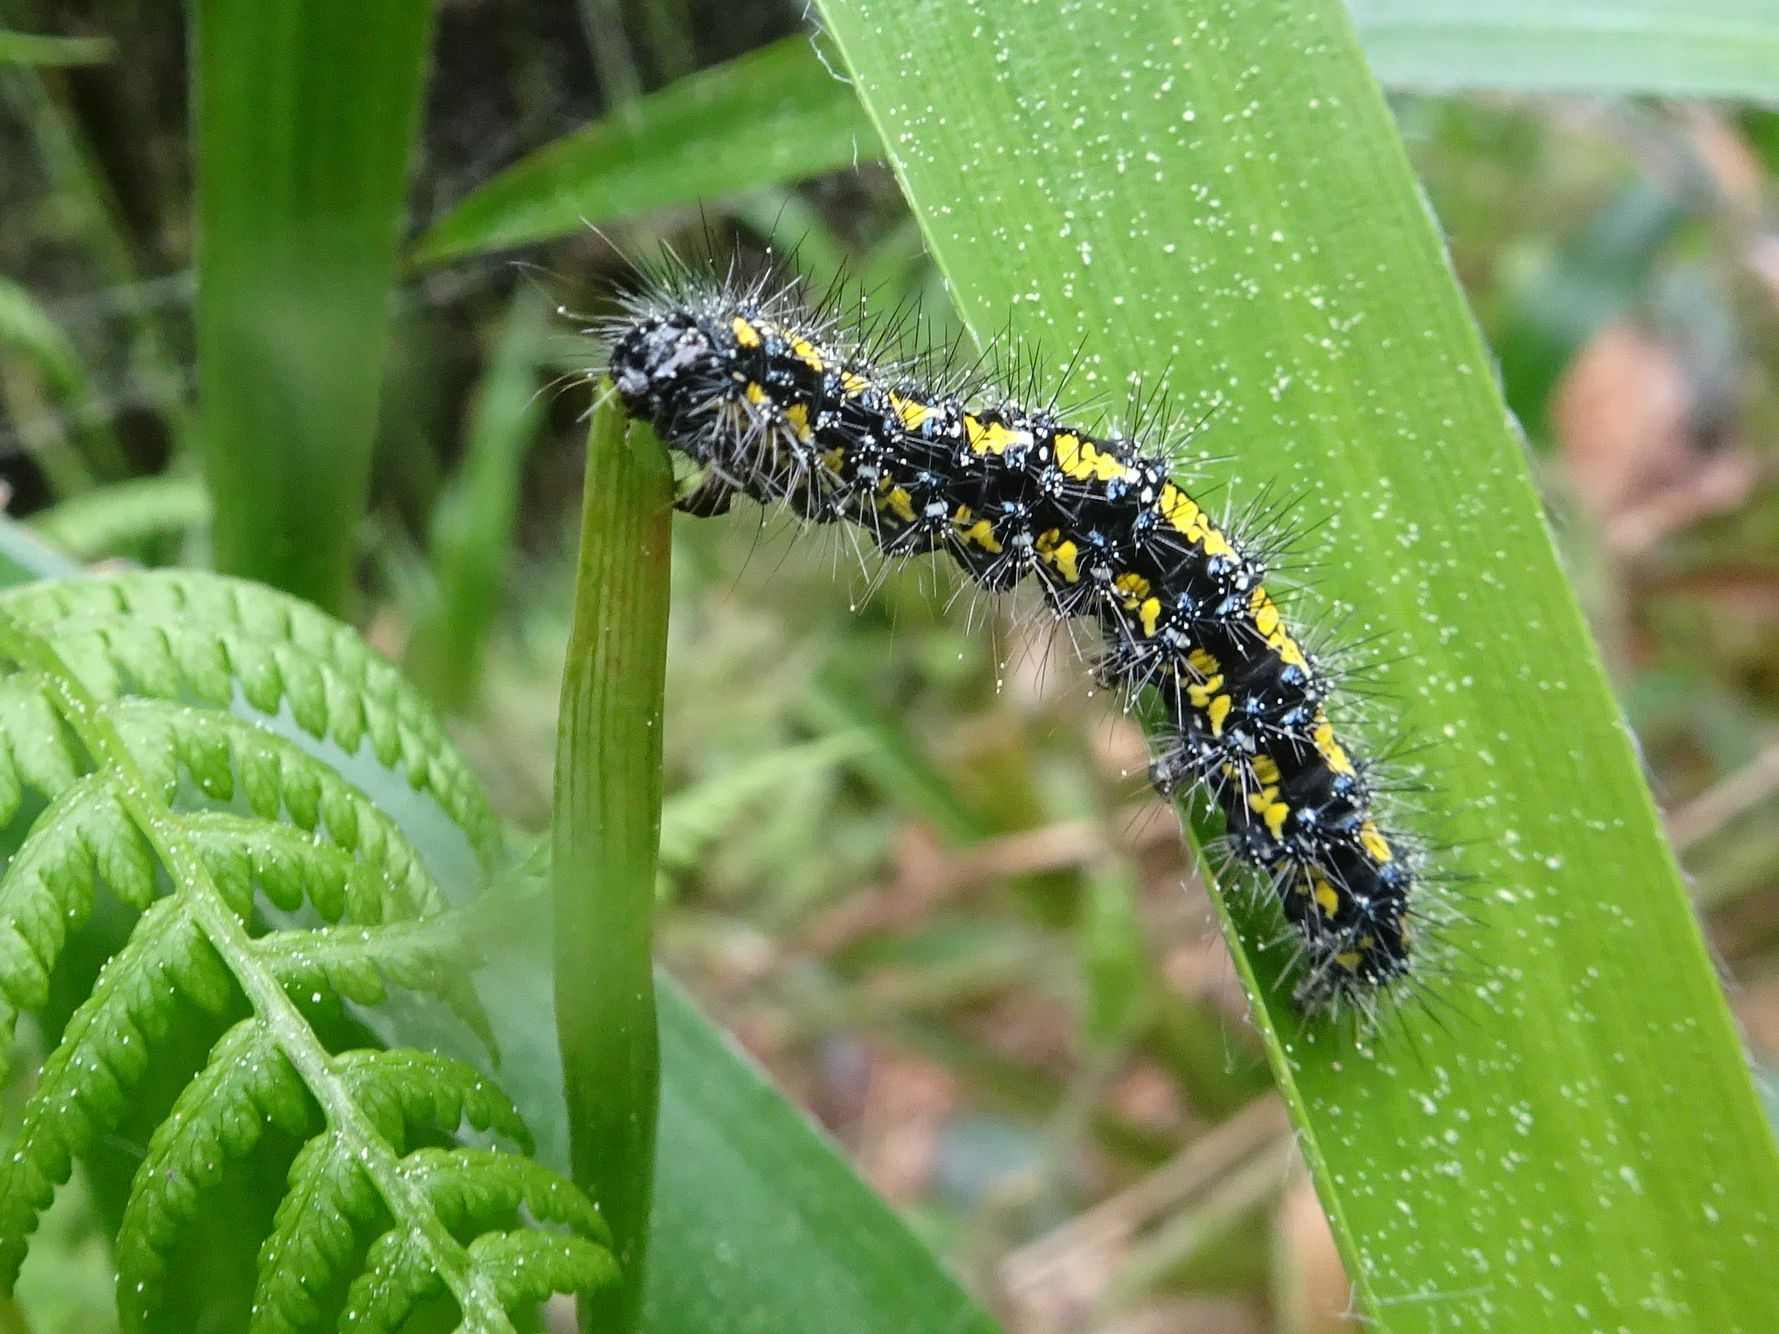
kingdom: Animalia
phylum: Arthropoda
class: Insecta
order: Lepidoptera
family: Erebidae
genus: Callimorpha
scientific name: Callimorpha dominula
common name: Scarlet tiger
